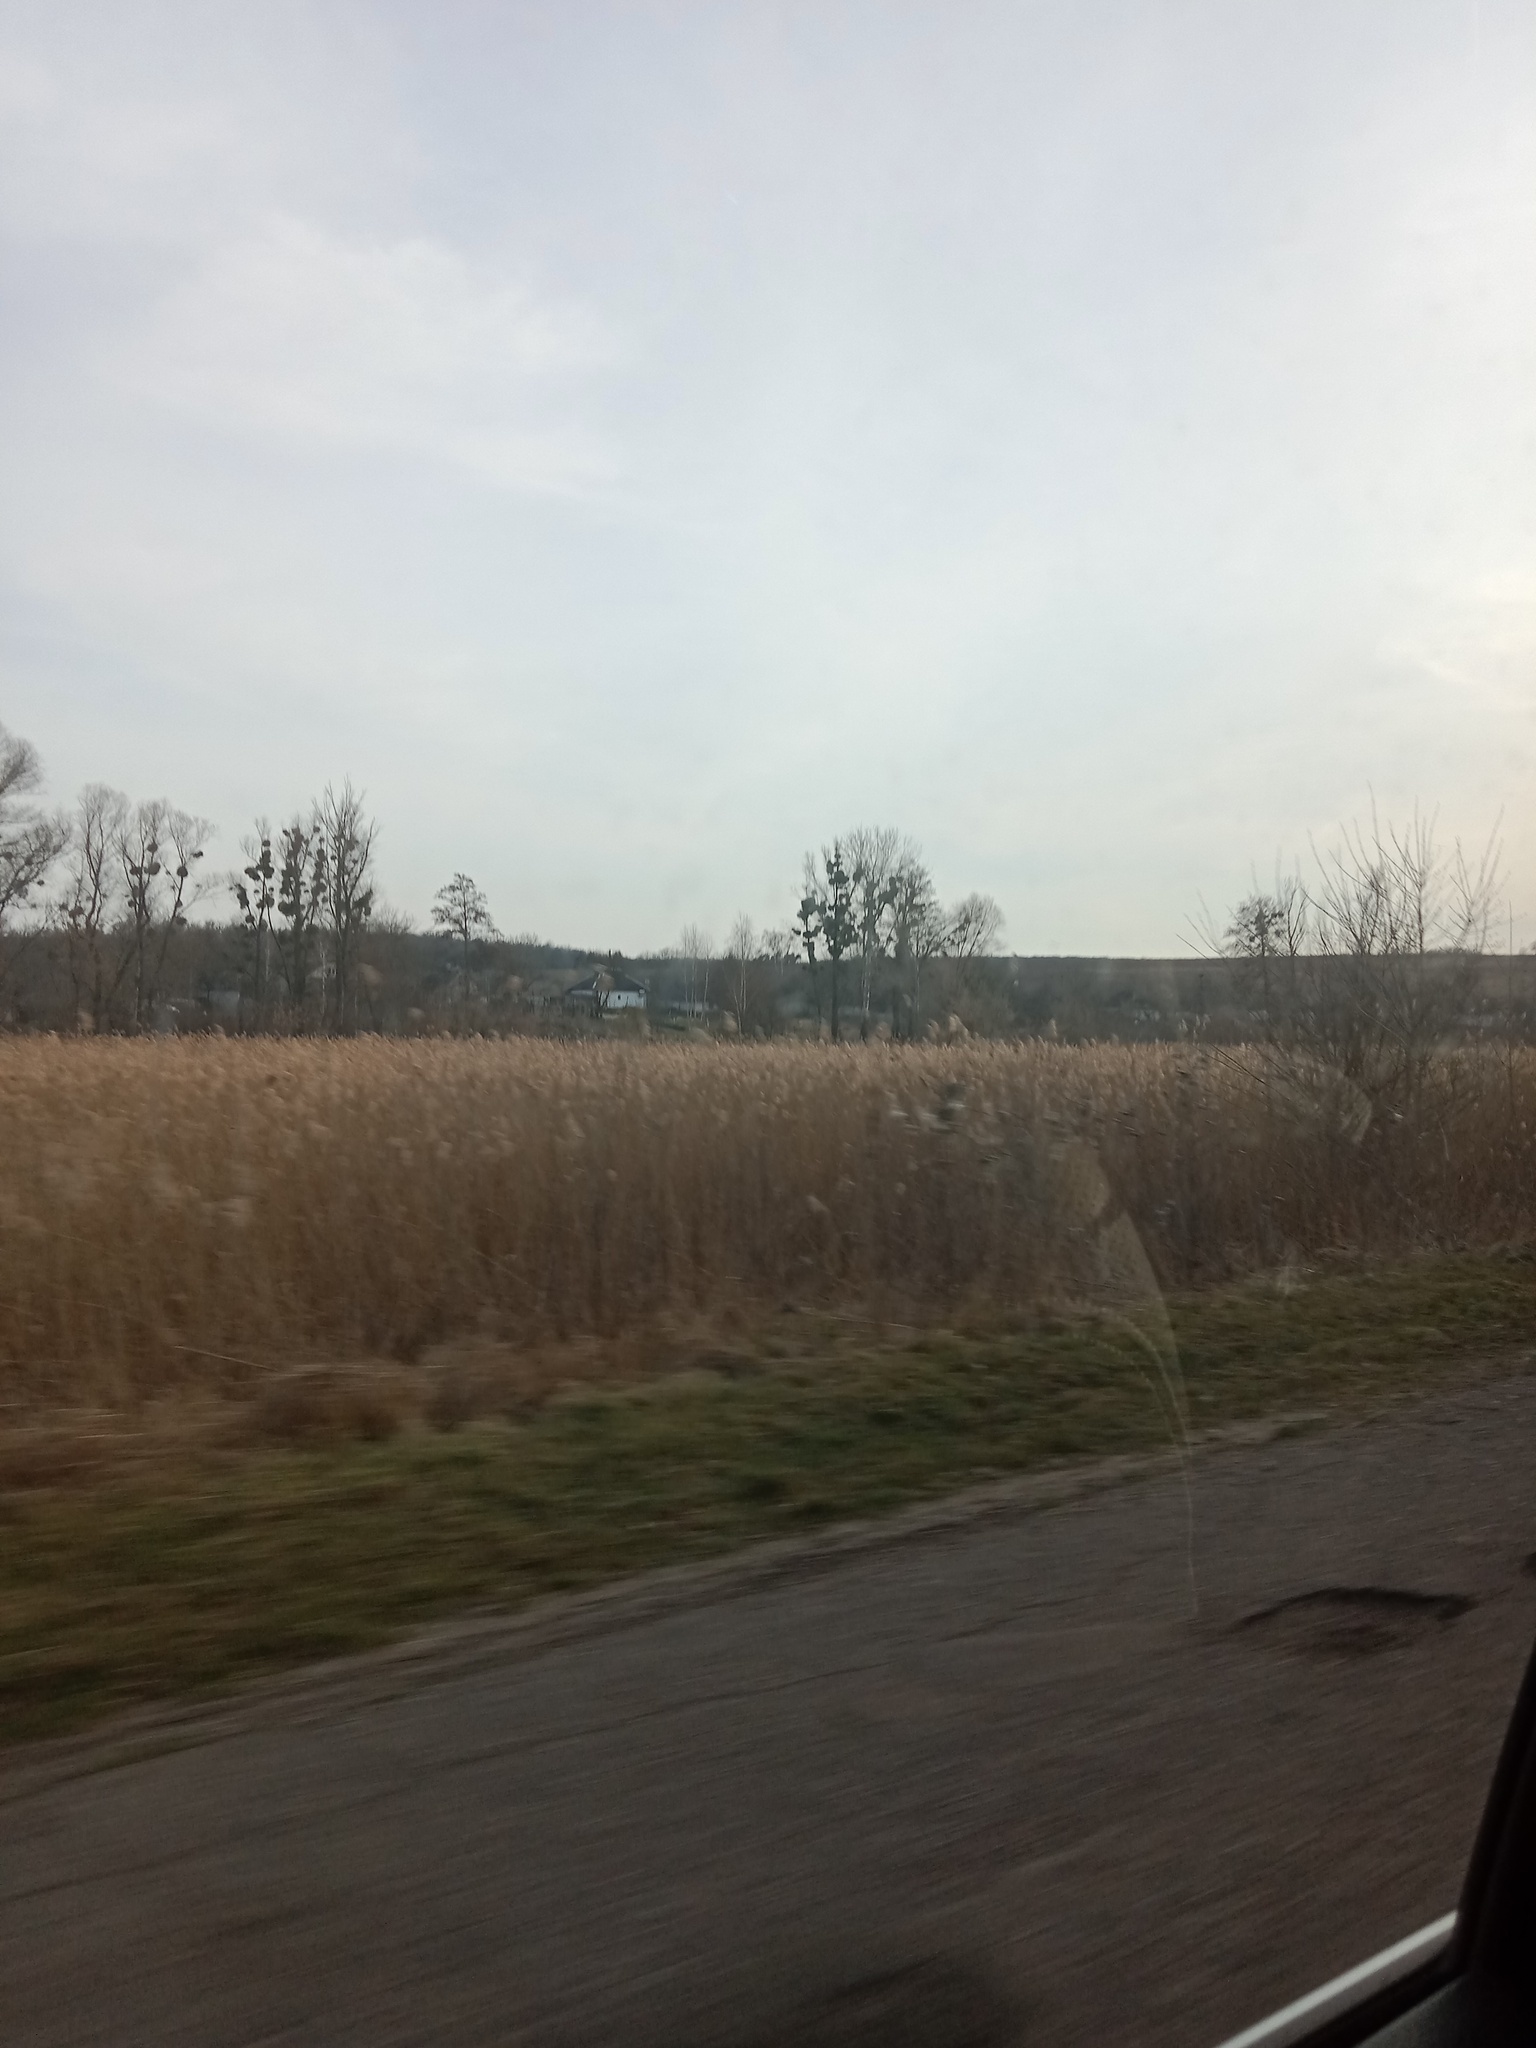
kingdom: Plantae
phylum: Tracheophyta
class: Magnoliopsida
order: Santalales
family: Viscaceae
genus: Viscum
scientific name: Viscum album
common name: Mistletoe
